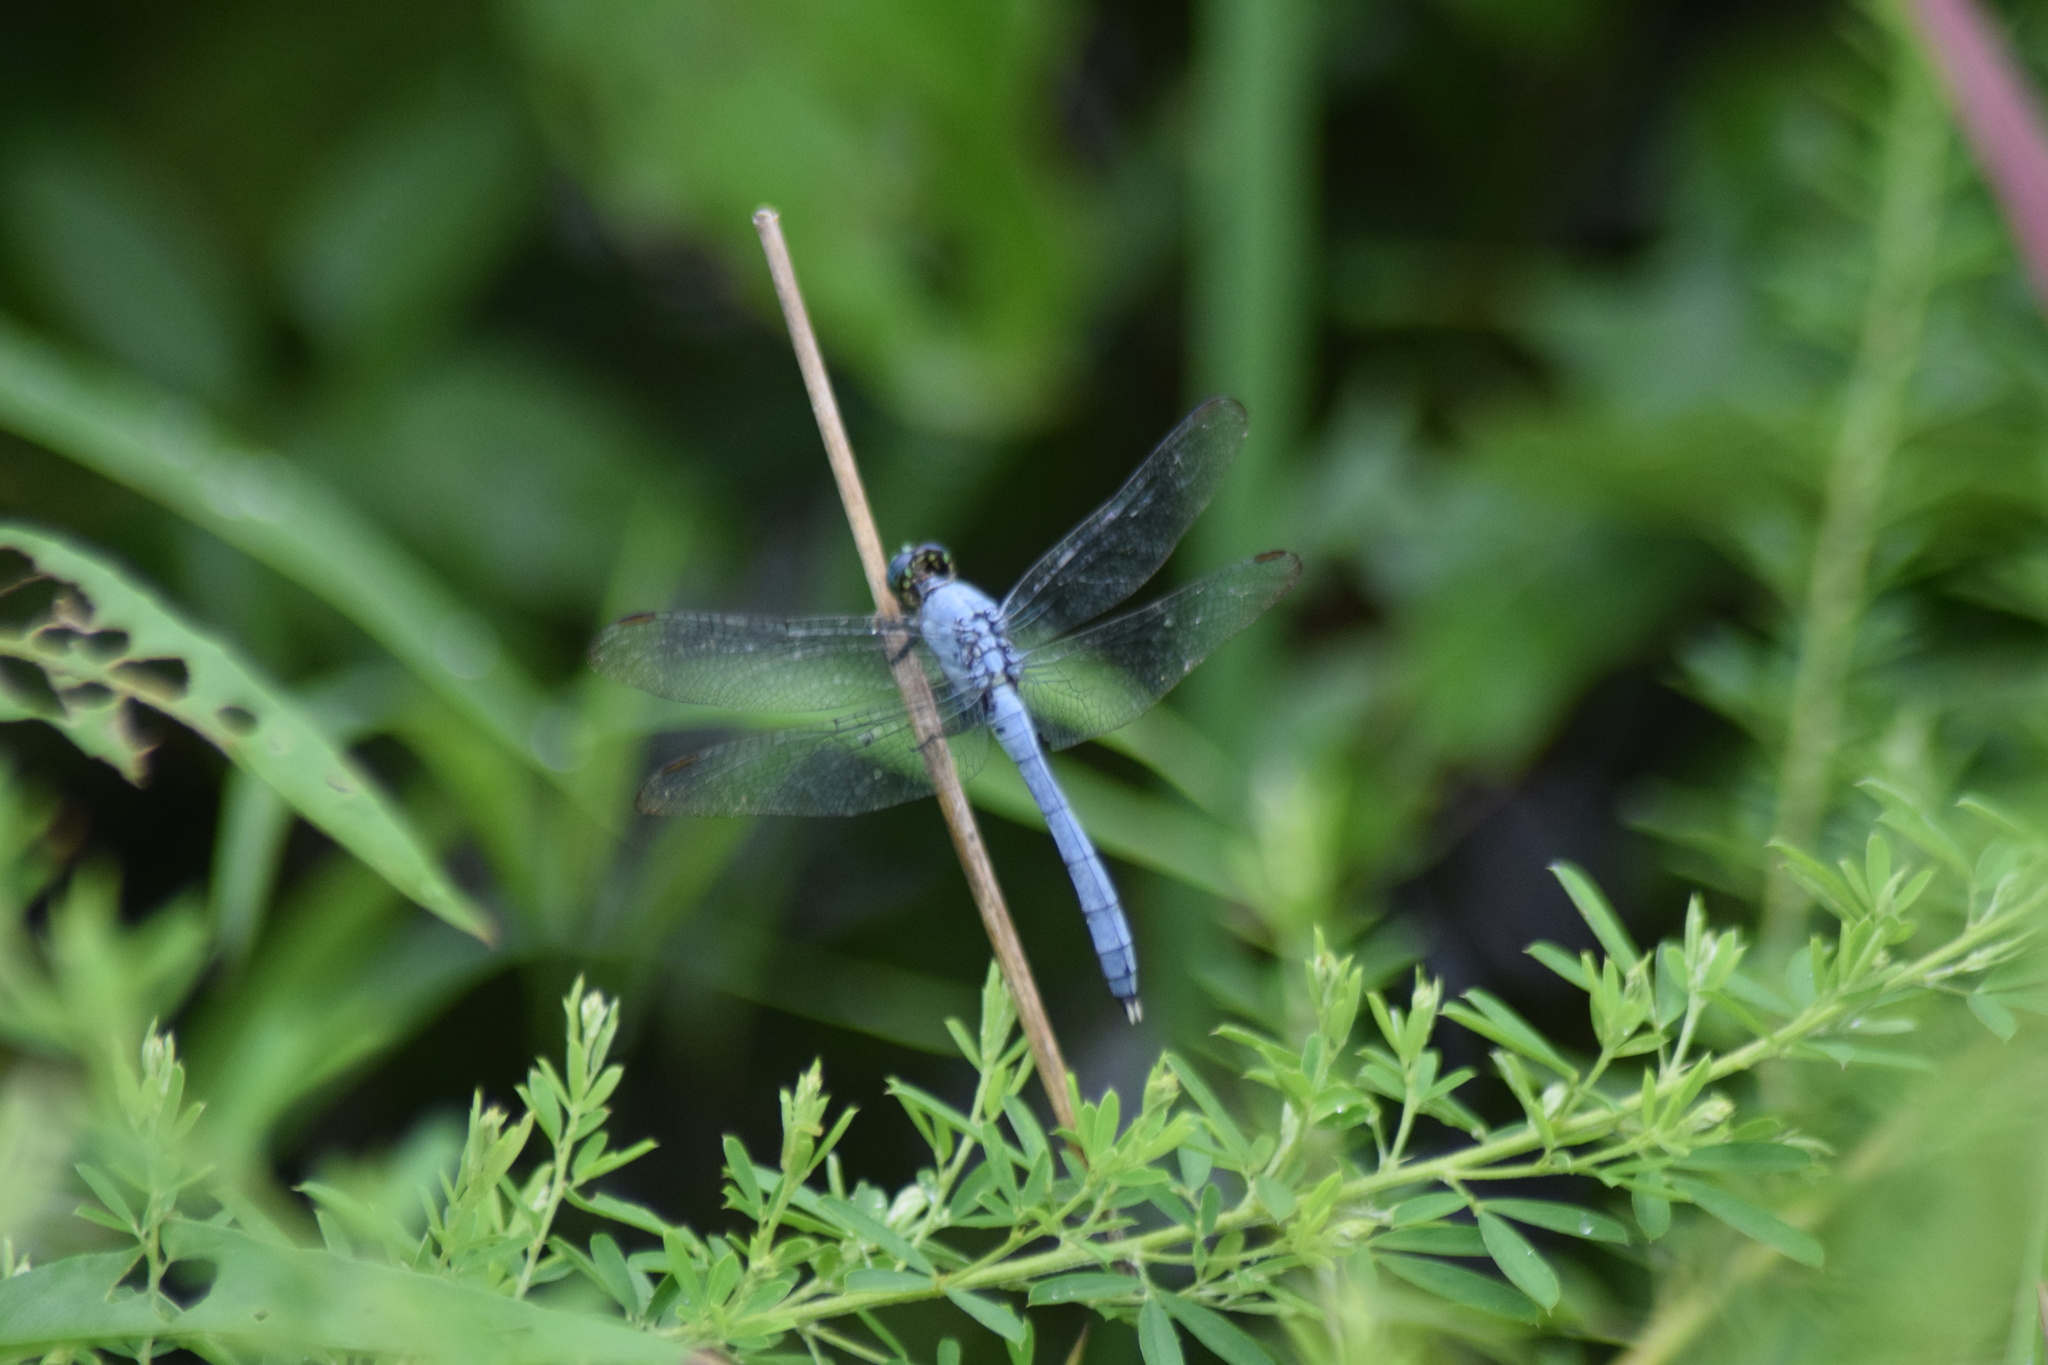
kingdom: Animalia
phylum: Arthropoda
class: Insecta
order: Odonata
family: Libellulidae
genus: Erythemis
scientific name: Erythemis simplicicollis
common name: Eastern pondhawk
